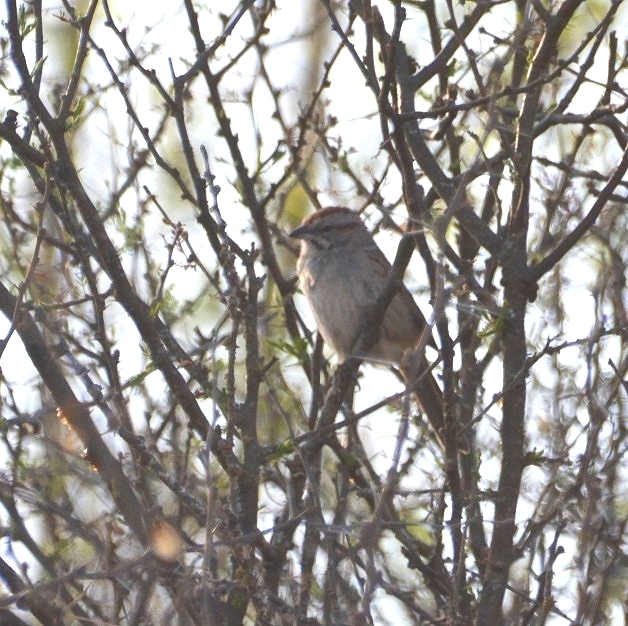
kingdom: Animalia
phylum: Chordata
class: Aves
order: Passeriformes
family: Passerellidae
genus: Rhynchospiza
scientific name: Rhynchospiza strigiceps
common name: Stripe-capped sparrow
